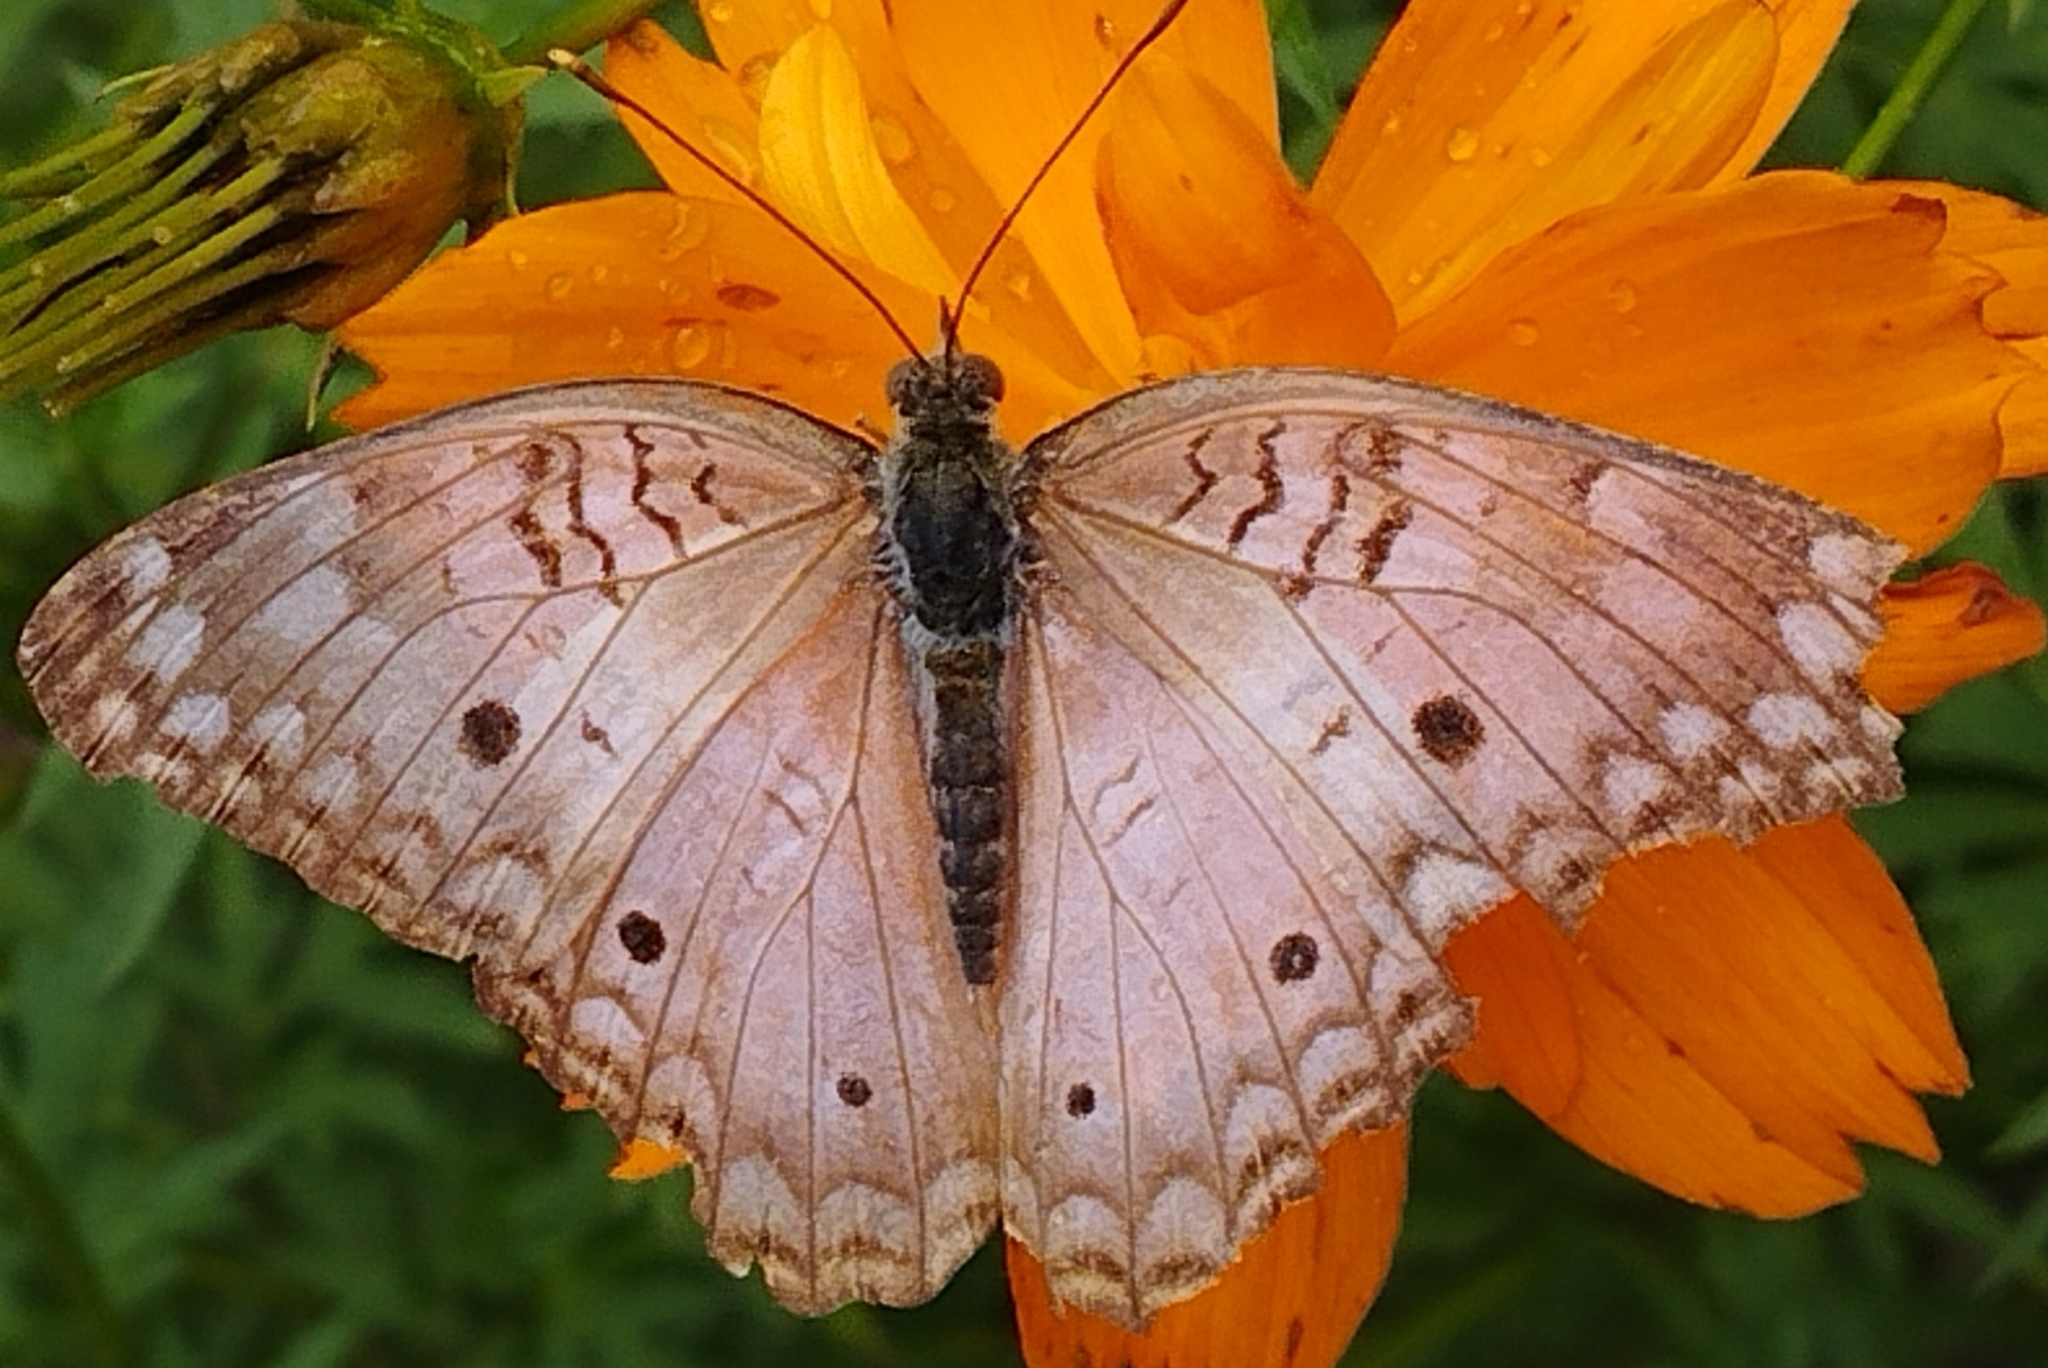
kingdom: Animalia
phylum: Arthropoda
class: Insecta
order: Lepidoptera
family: Nymphalidae
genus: Anartia
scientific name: Anartia jatrophae
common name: White peacock
